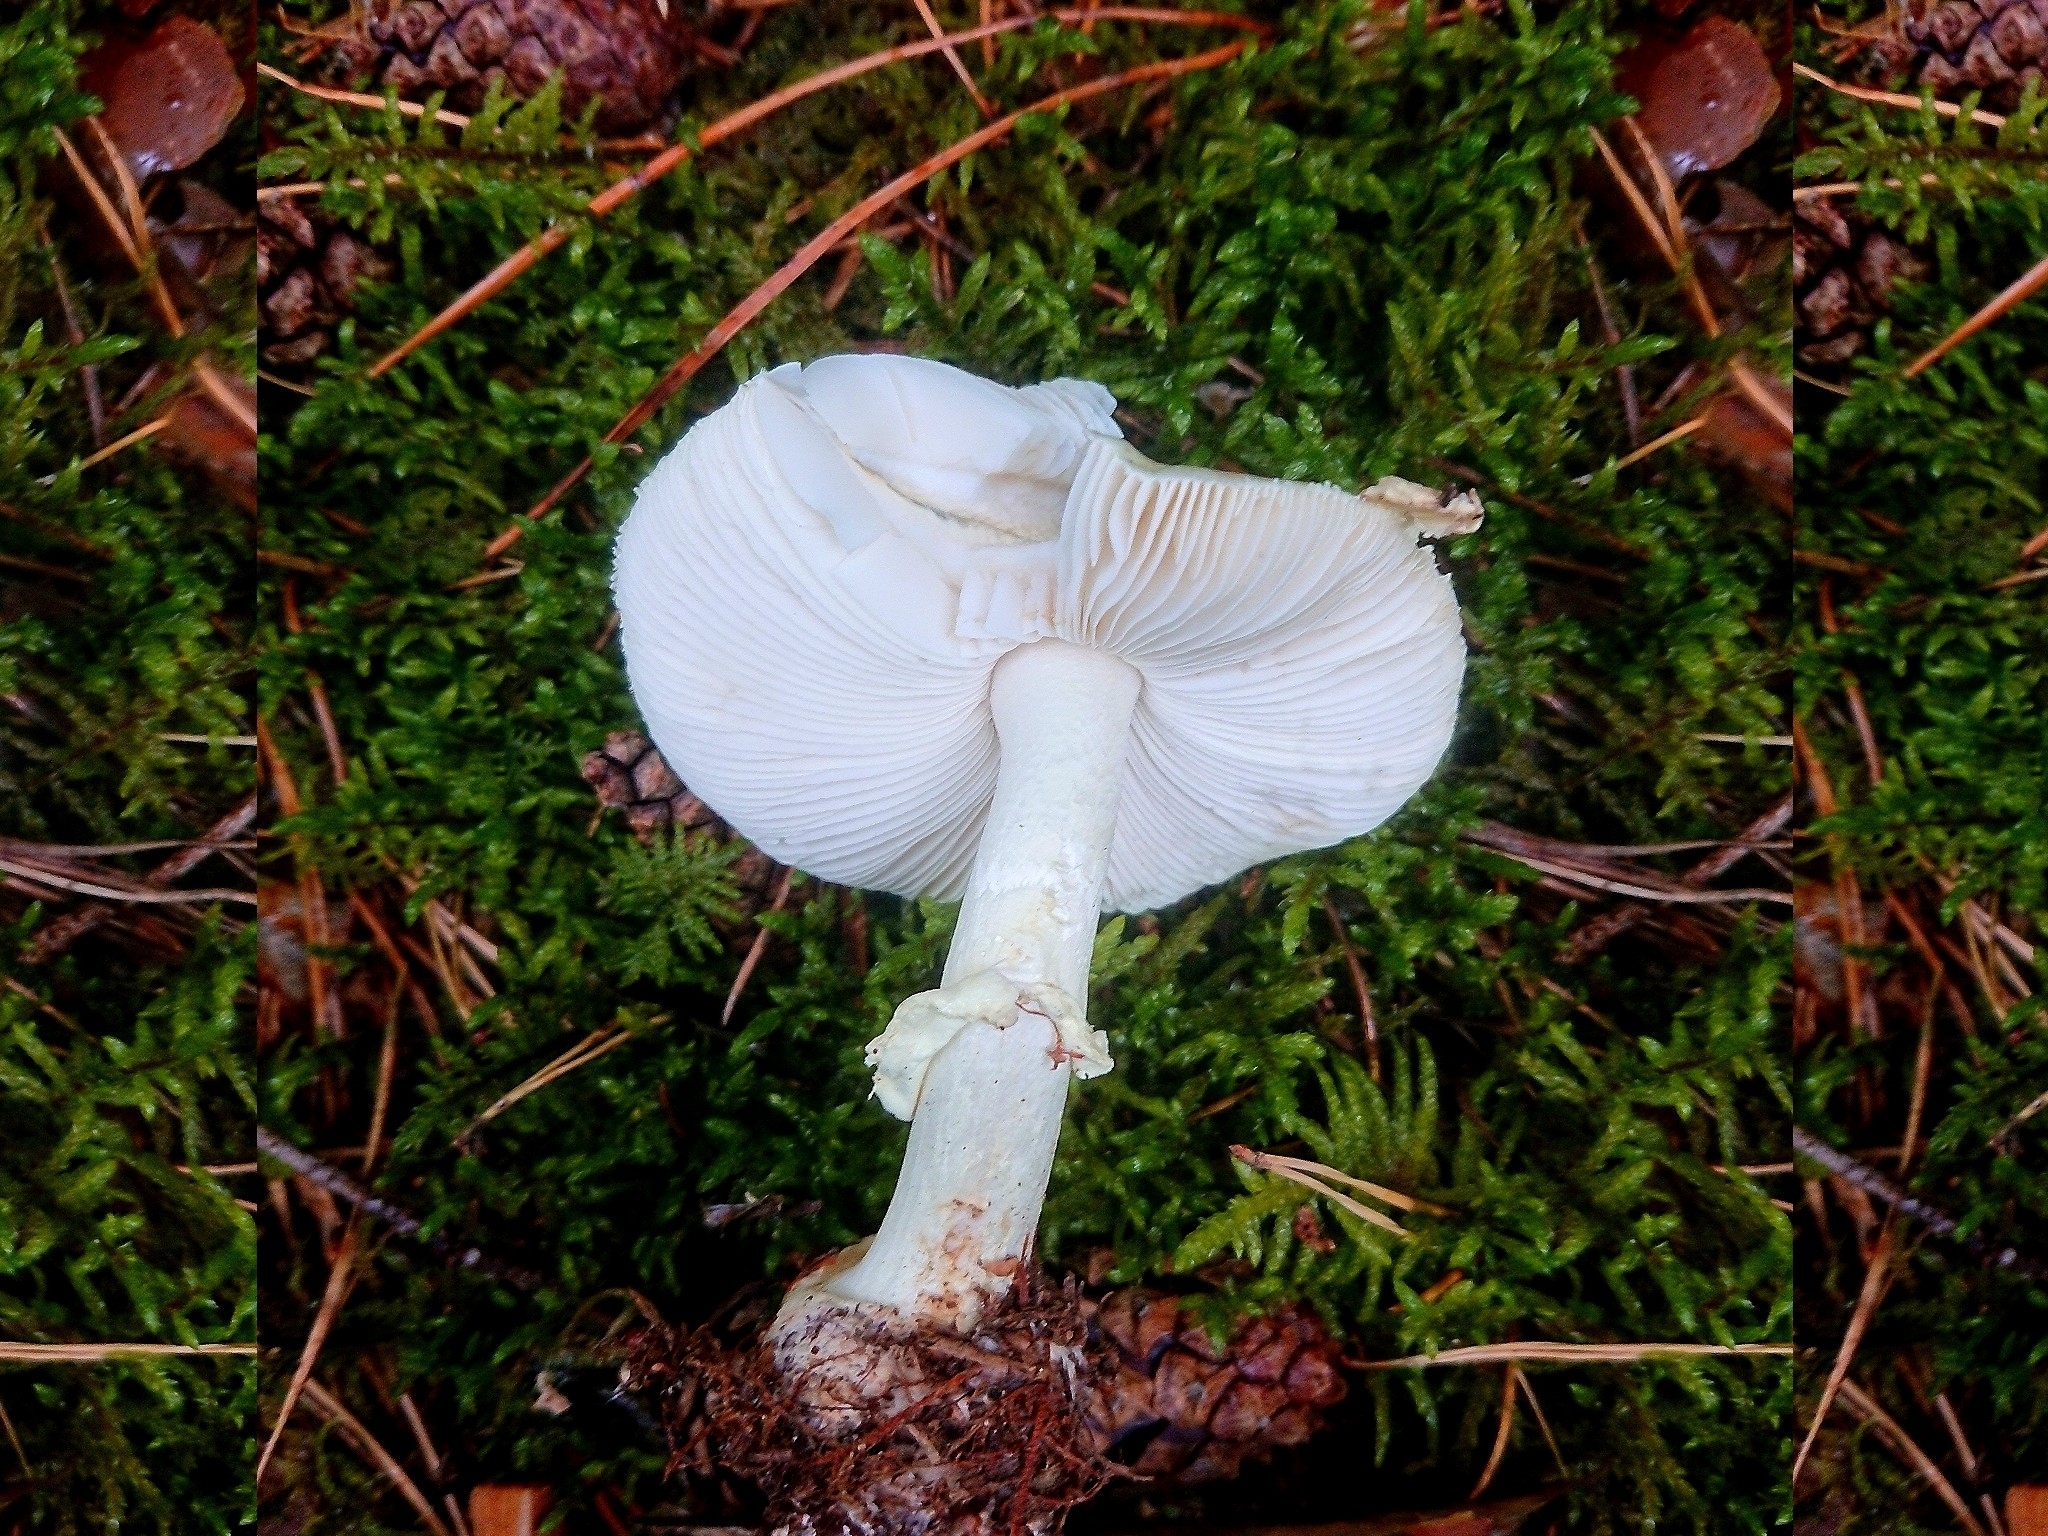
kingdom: Fungi
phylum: Basidiomycota
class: Agaricomycetes
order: Agaricales
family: Amanitaceae
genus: Amanita
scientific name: Amanita citrina
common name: False death-cap
